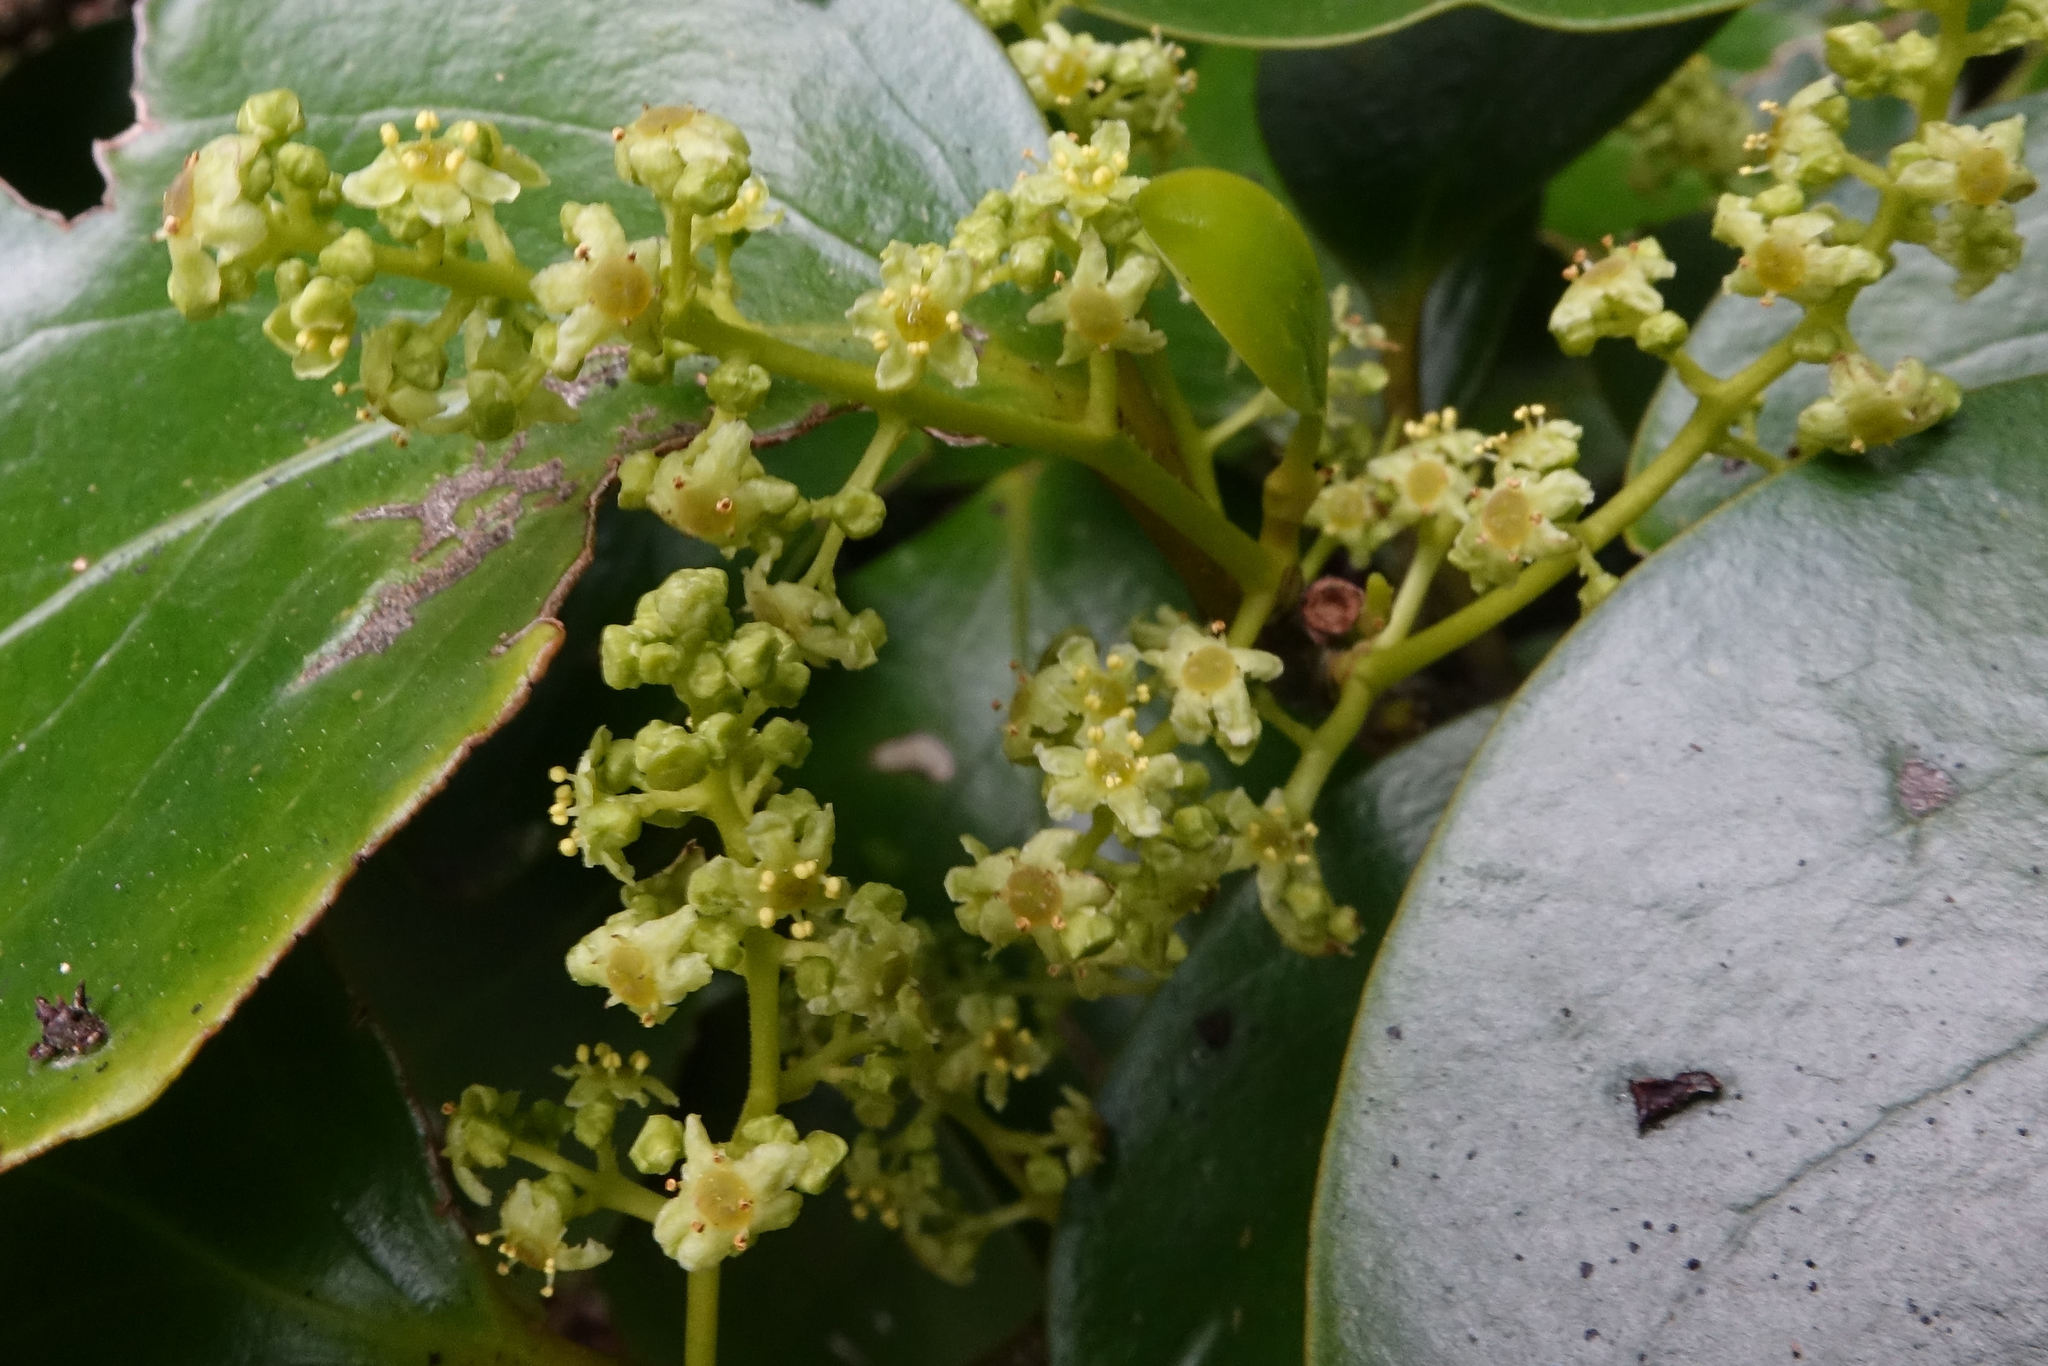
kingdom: Plantae
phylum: Tracheophyta
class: Magnoliopsida
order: Apiales
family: Griseliniaceae
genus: Griselinia
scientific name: Griselinia littoralis
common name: New zealand broadleaf
